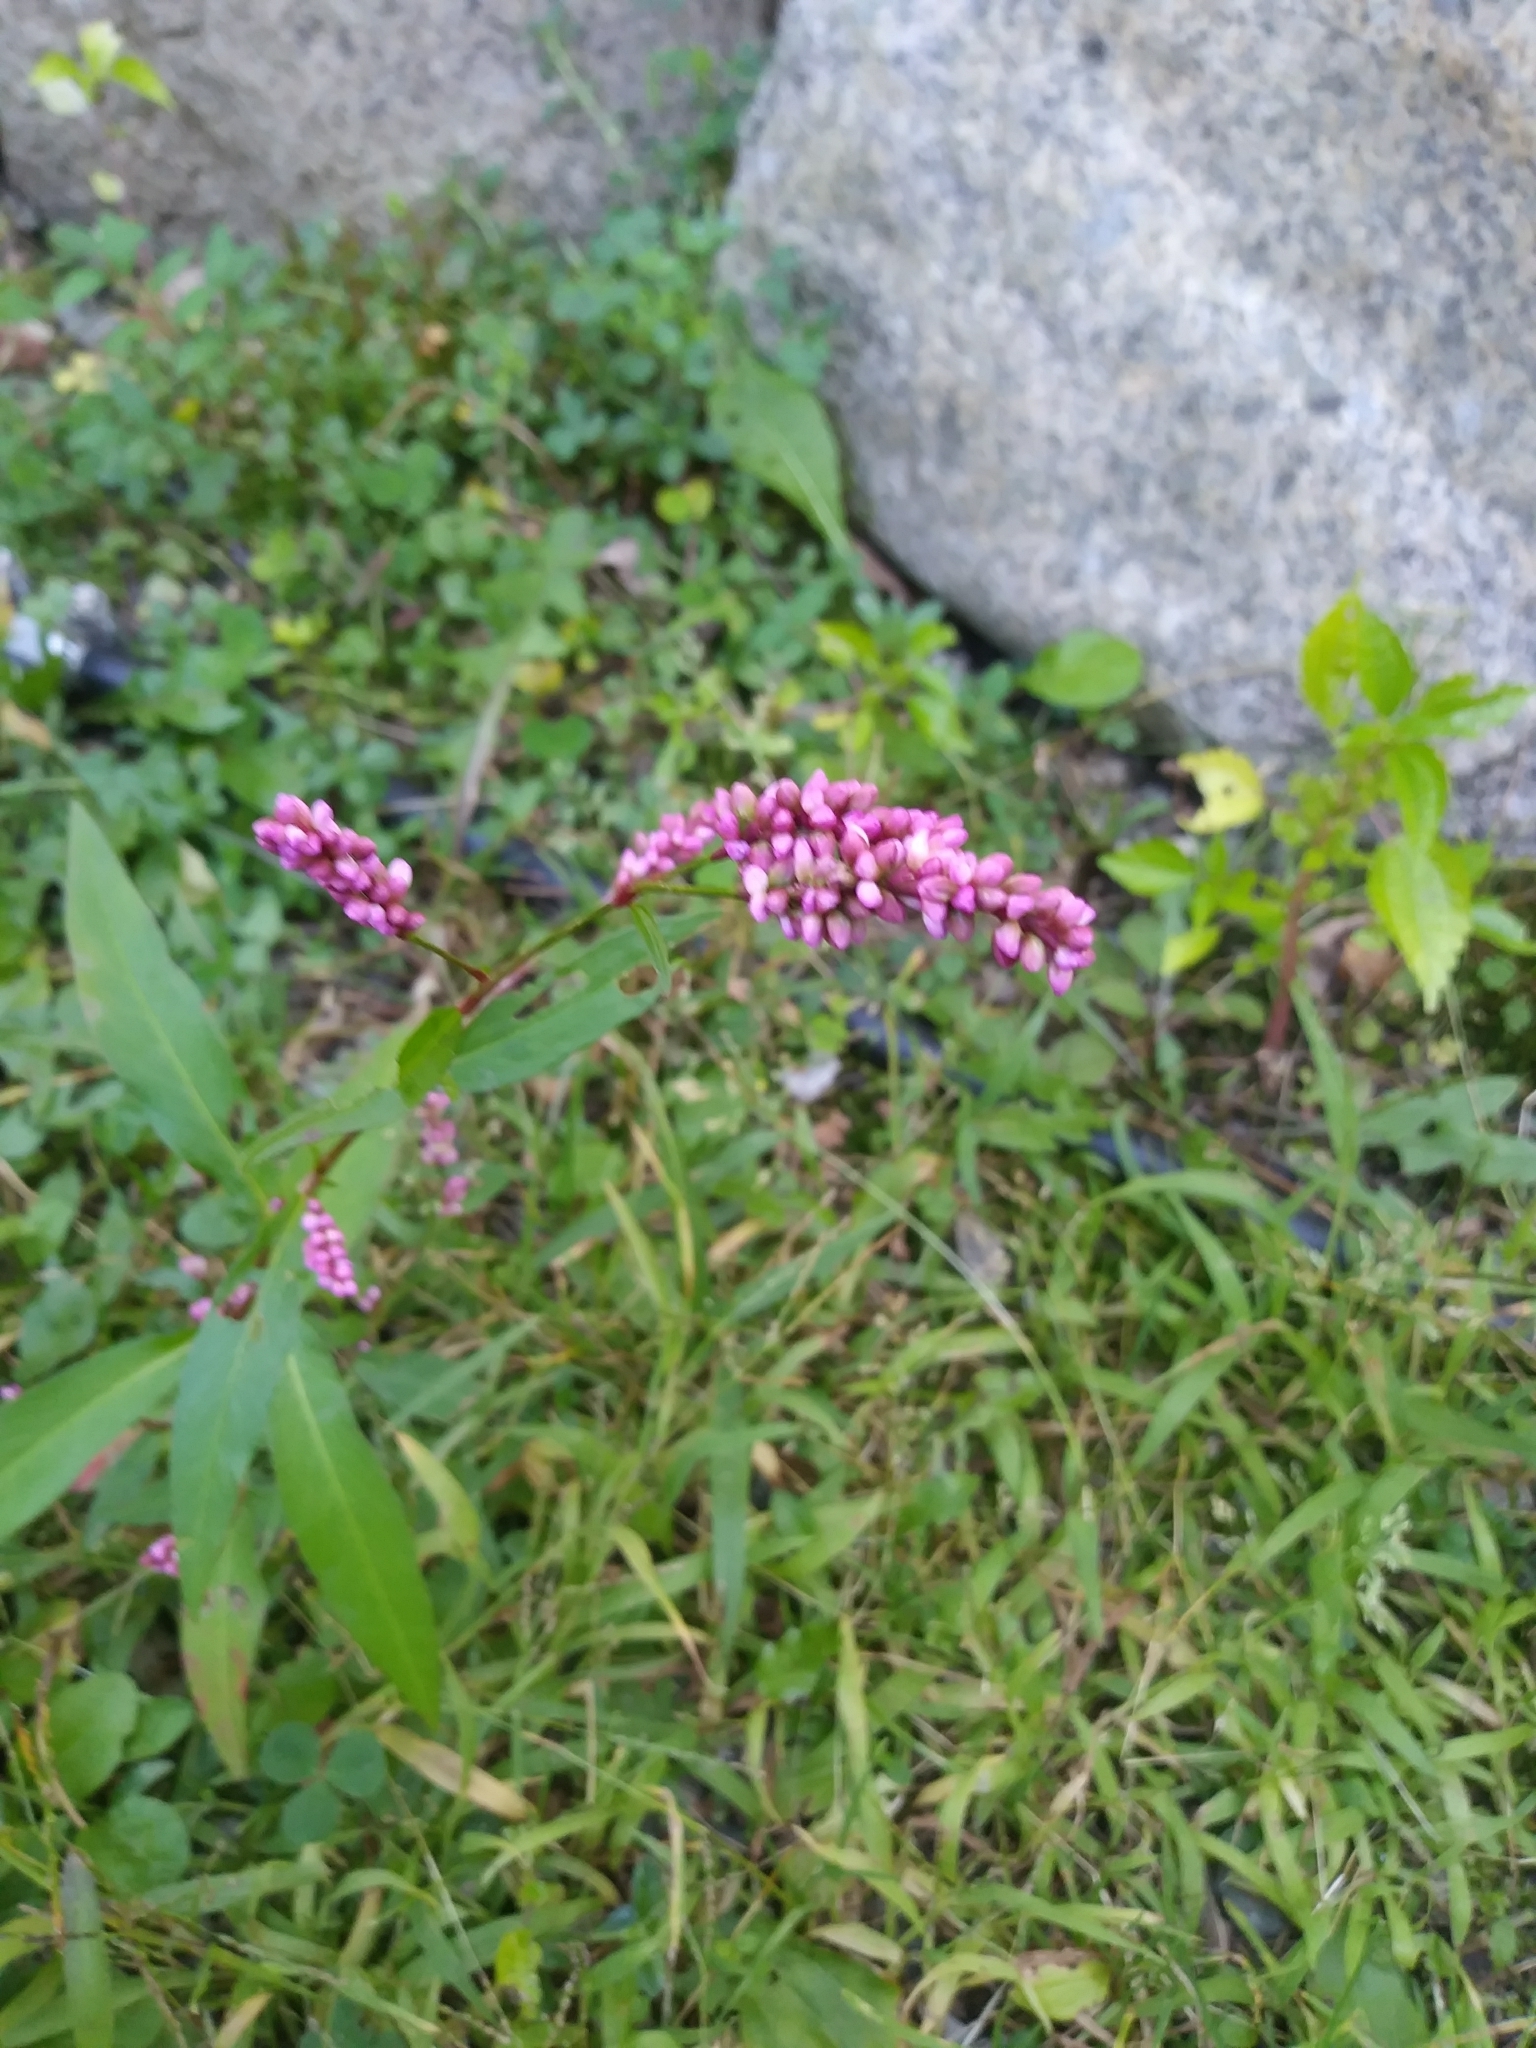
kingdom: Plantae
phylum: Tracheophyta
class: Magnoliopsida
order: Caryophyllales
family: Polygonaceae
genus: Persicaria
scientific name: Persicaria longiseta
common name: Bristly lady's-thumb
